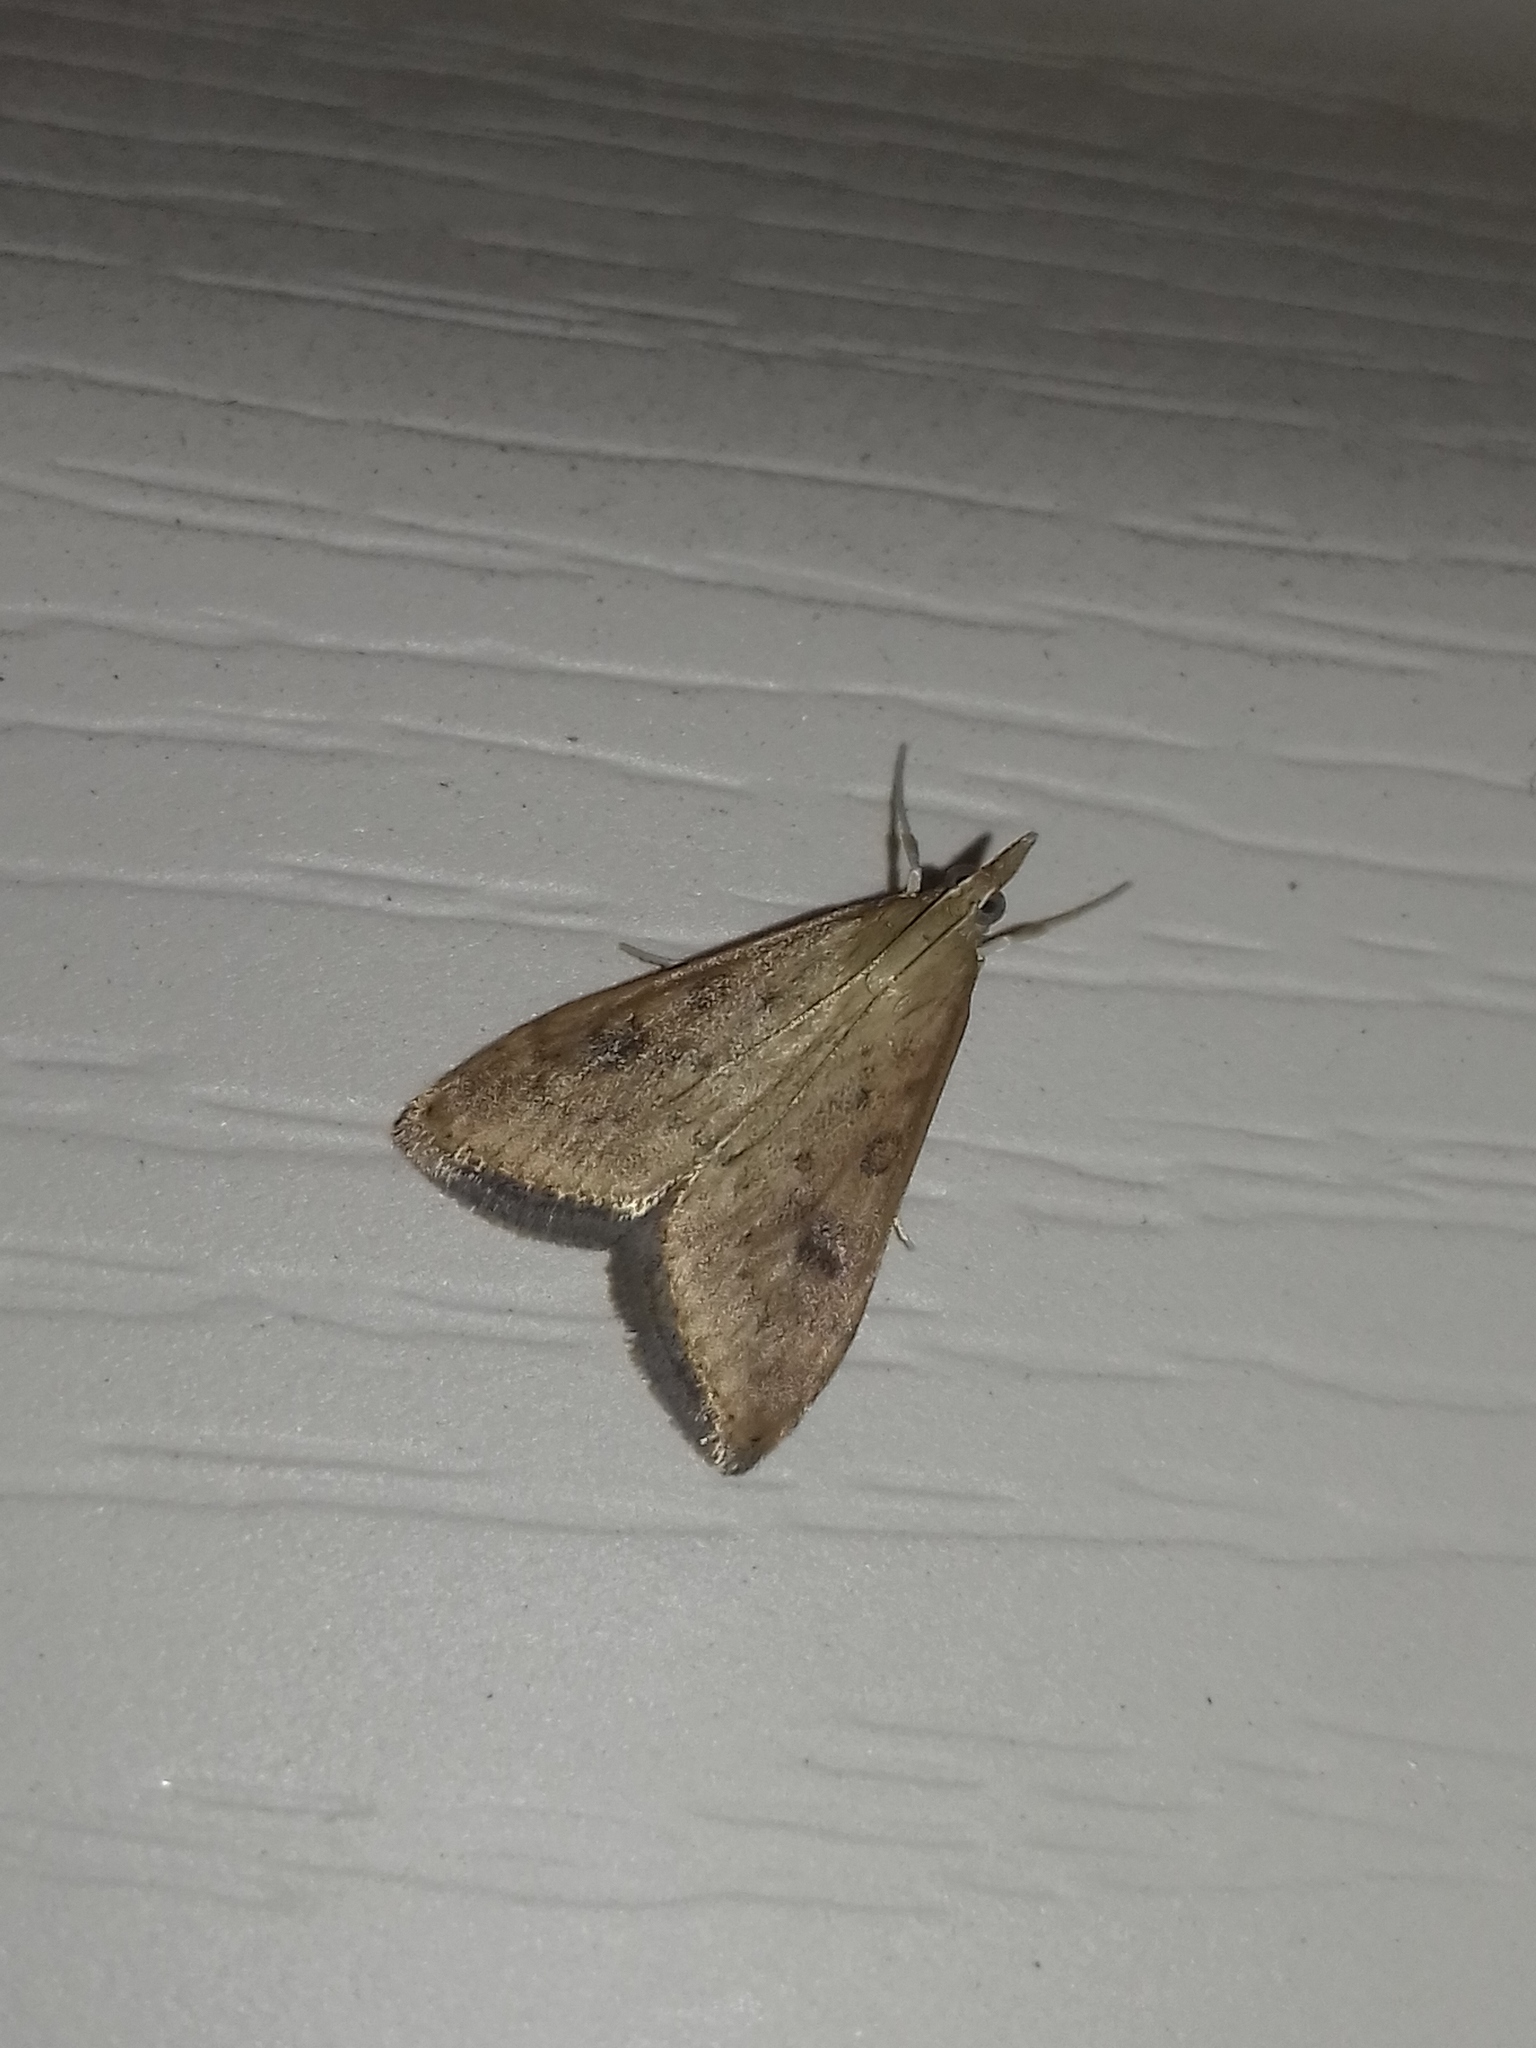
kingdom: Animalia
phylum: Arthropoda
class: Insecta
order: Lepidoptera
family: Crambidae
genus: Udea
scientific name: Udea ferrugalis
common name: Rusty dot
